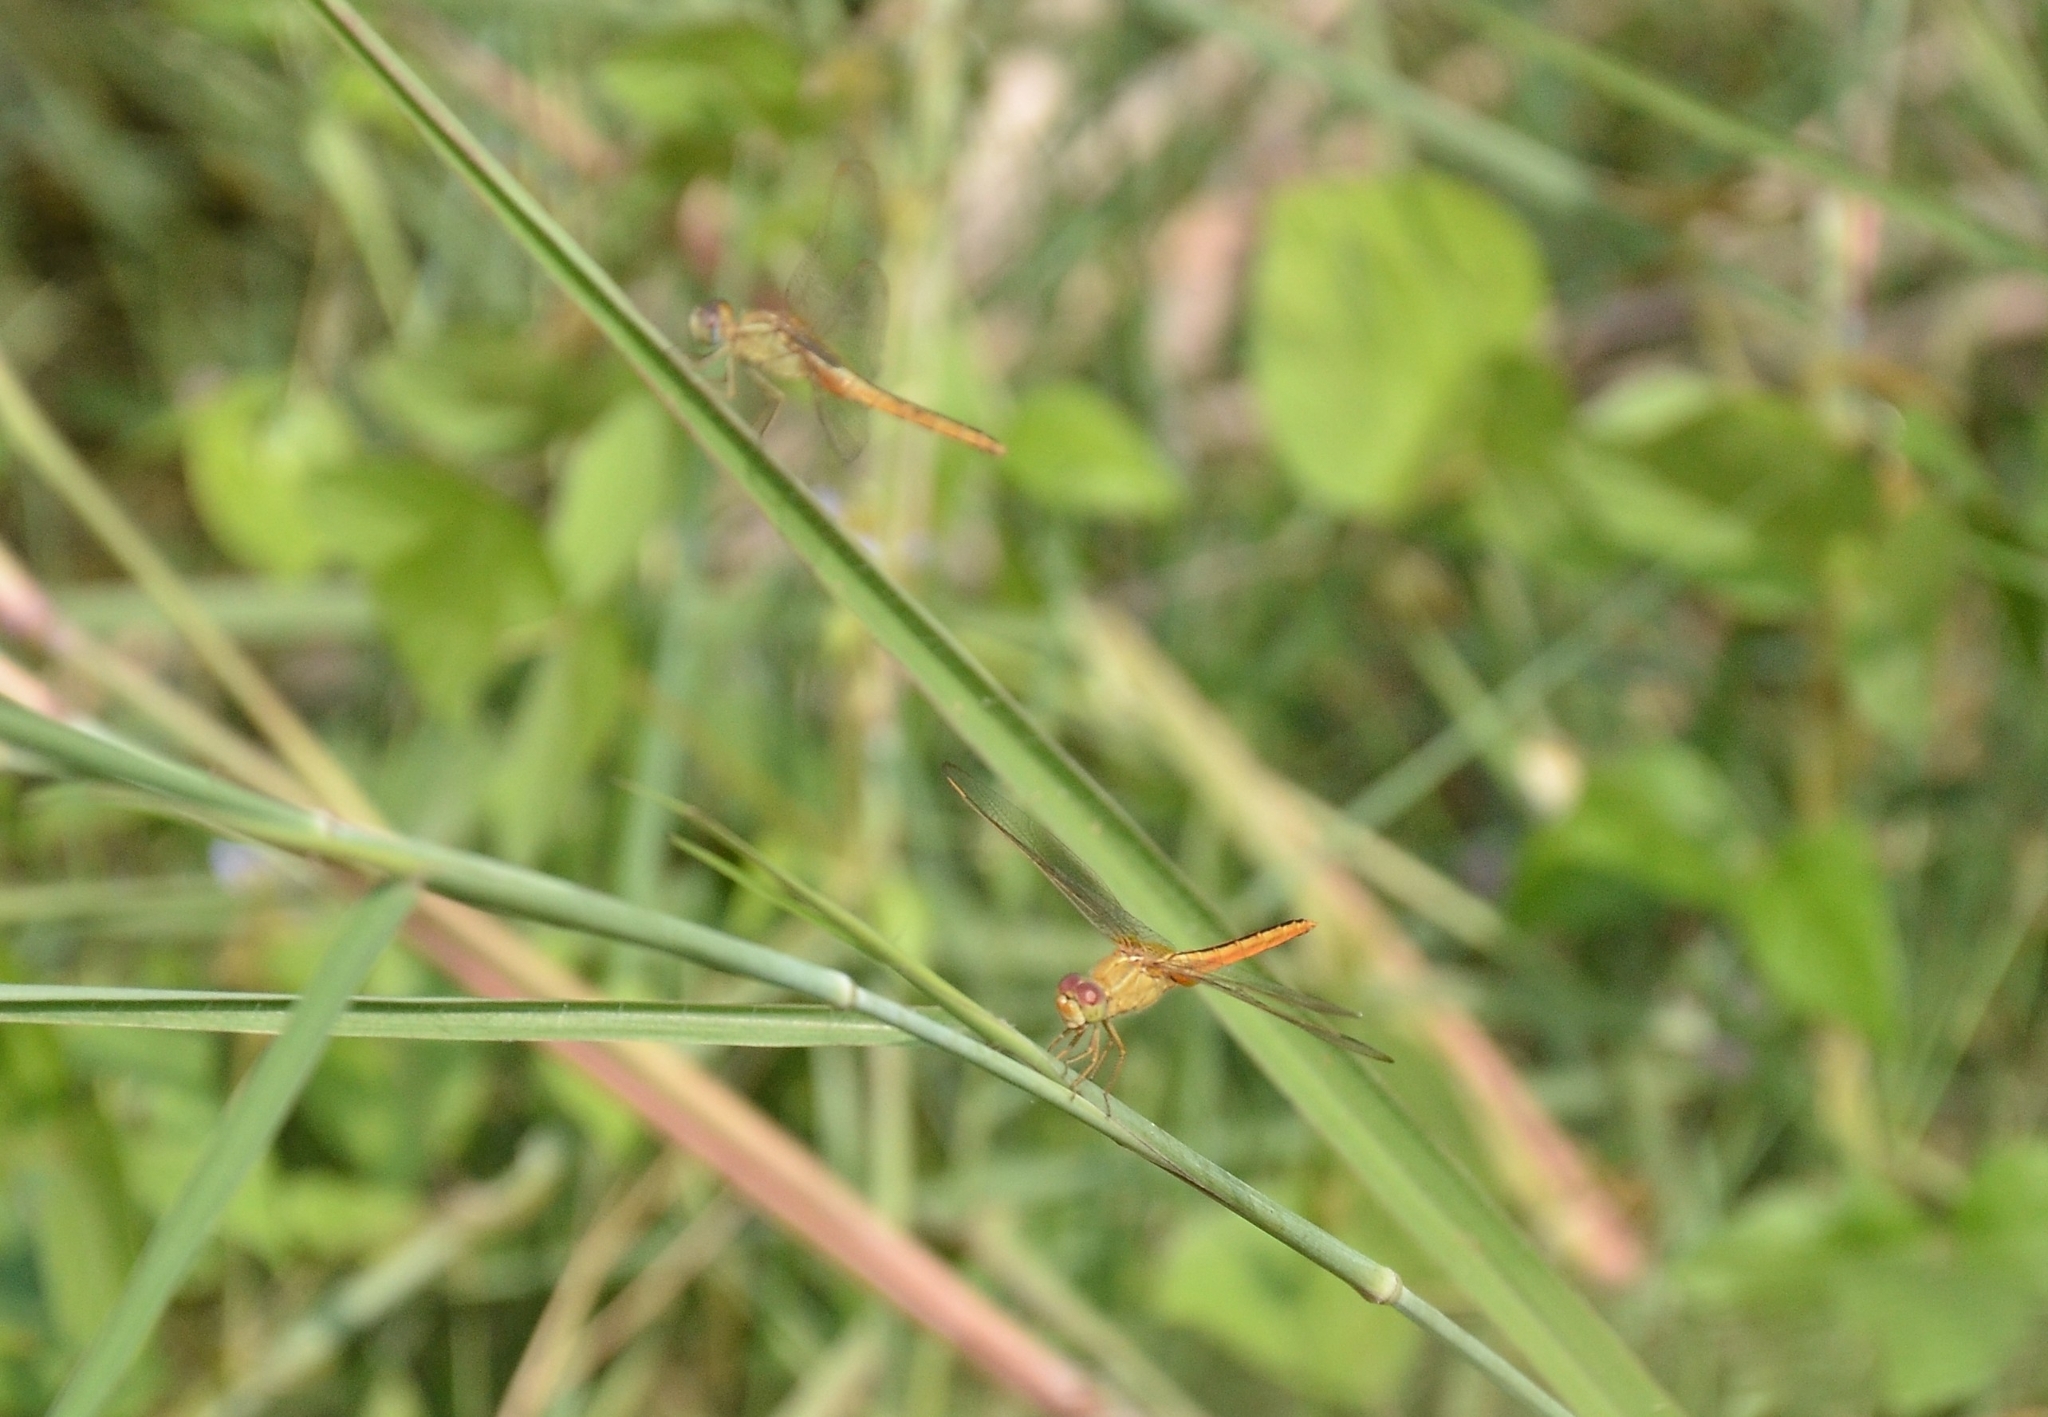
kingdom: Animalia
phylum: Arthropoda
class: Insecta
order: Odonata
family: Libellulidae
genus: Brachythemis
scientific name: Brachythemis contaminata
